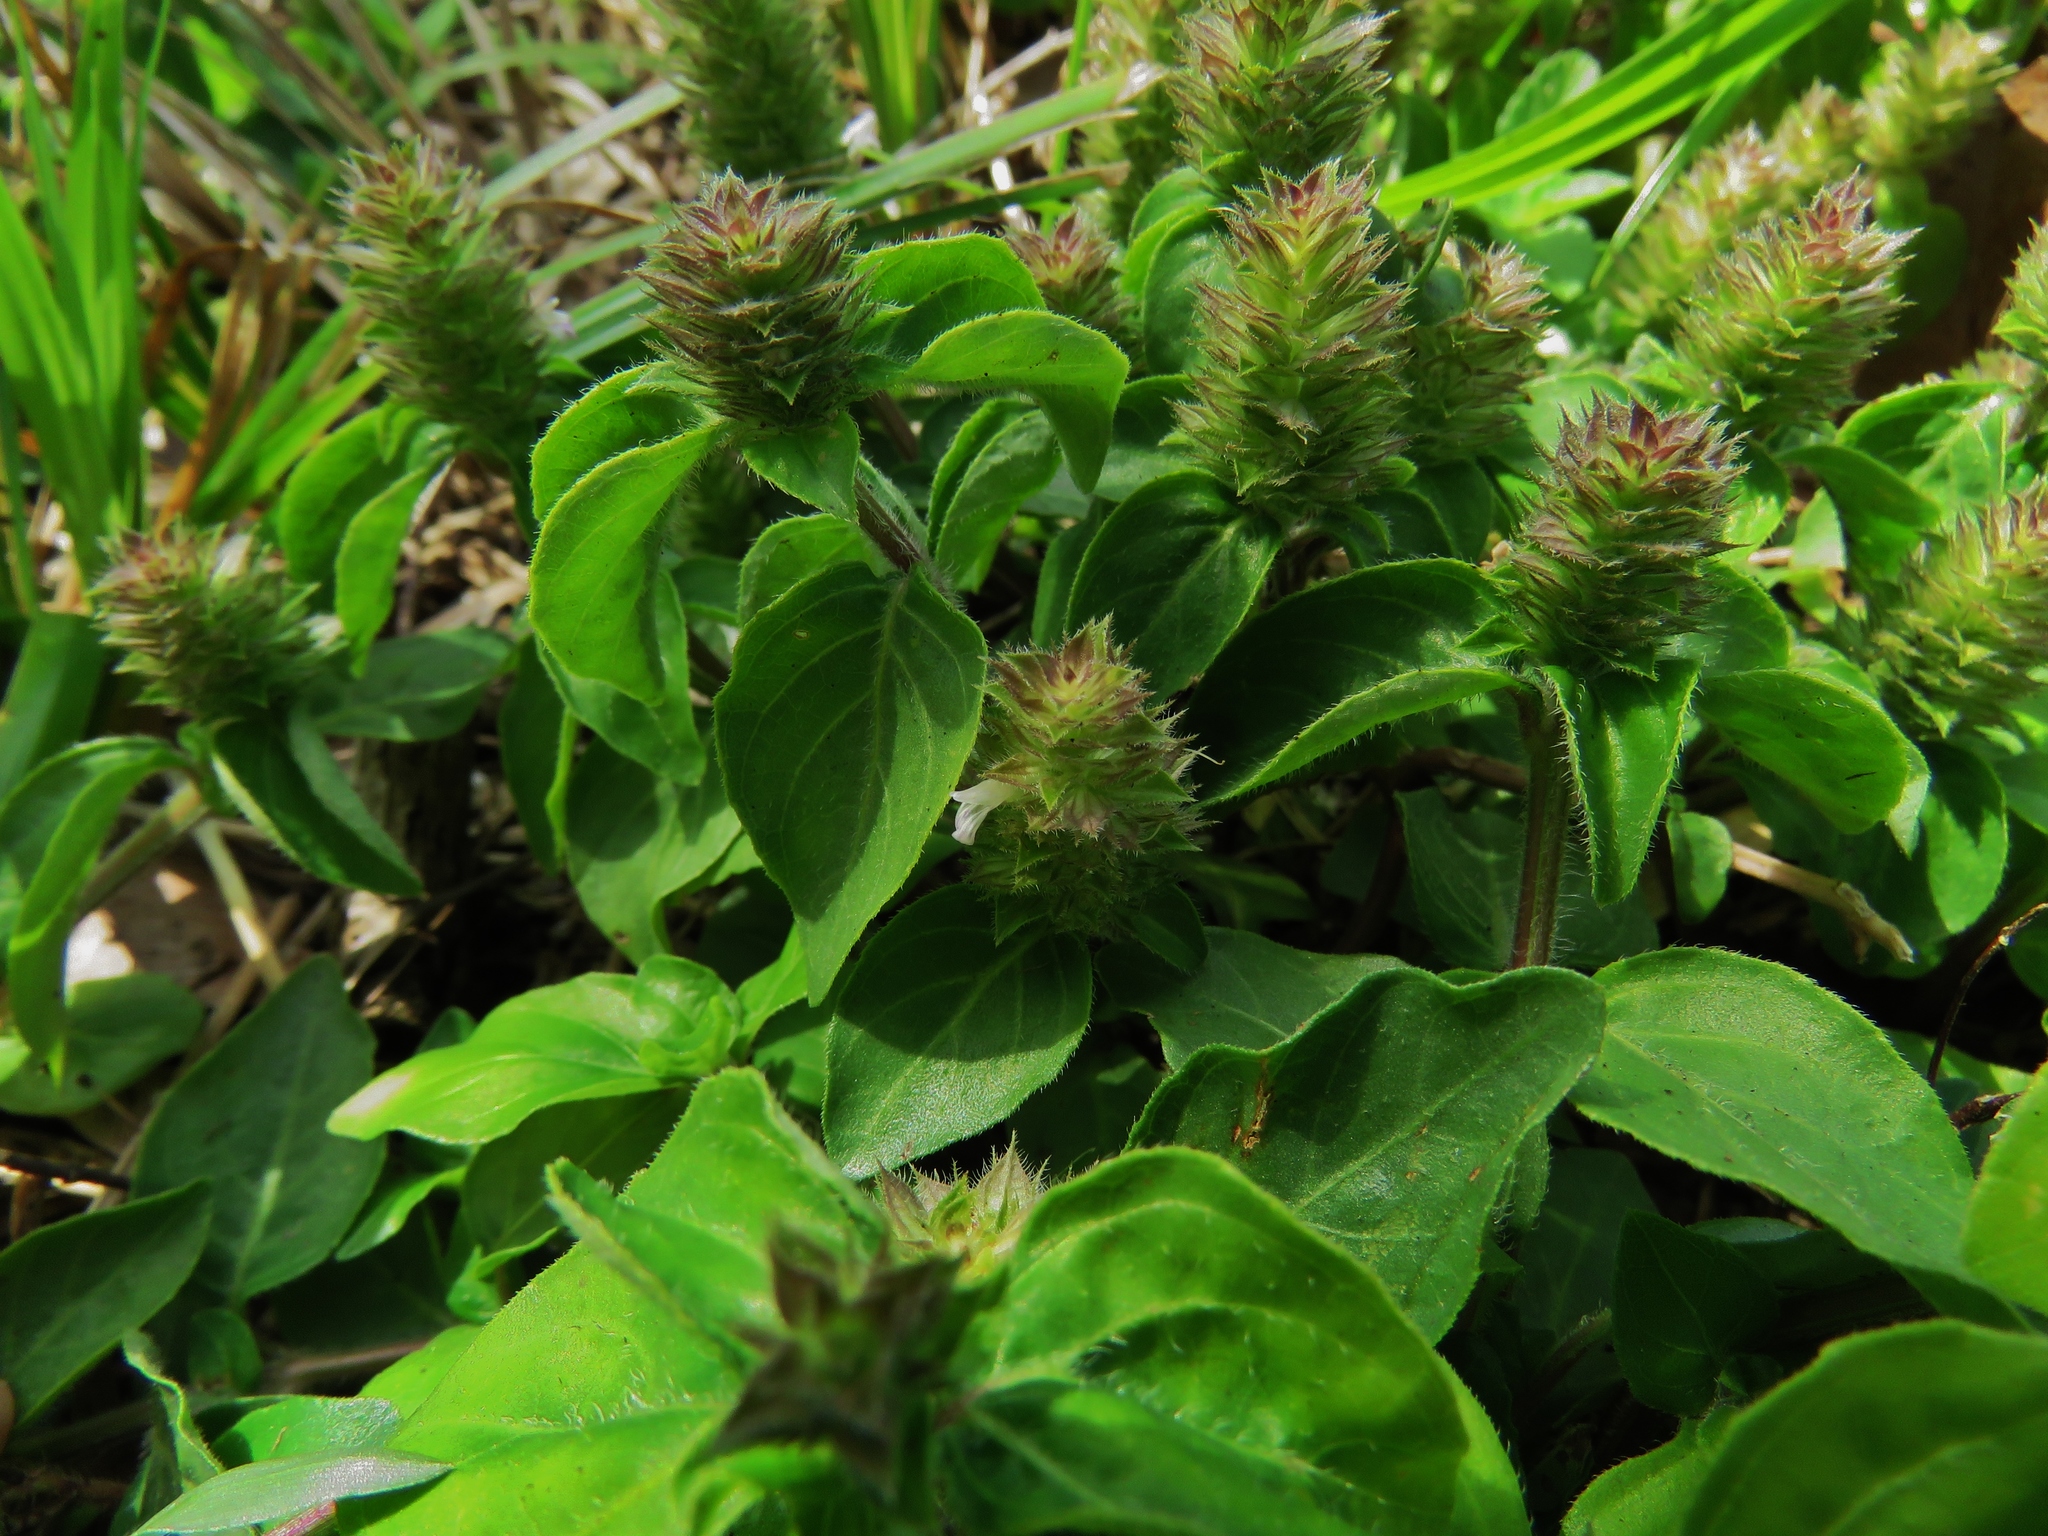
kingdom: Plantae
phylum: Tracheophyta
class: Magnoliopsida
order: Lamiales
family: Acanthaceae
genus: Ruellia
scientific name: Ruellia blechum
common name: Browne's blechum
